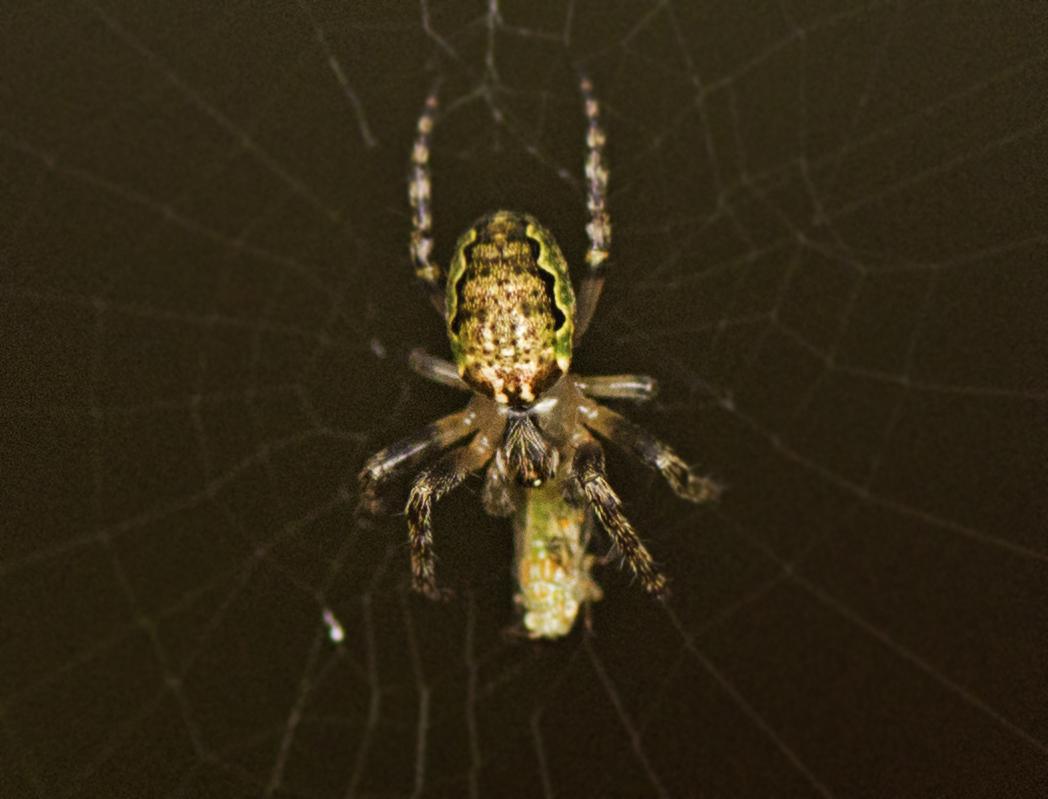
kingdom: Animalia
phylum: Arthropoda
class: Arachnida
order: Araneae
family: Araneidae
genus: Plebs
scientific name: Plebs eburnus
